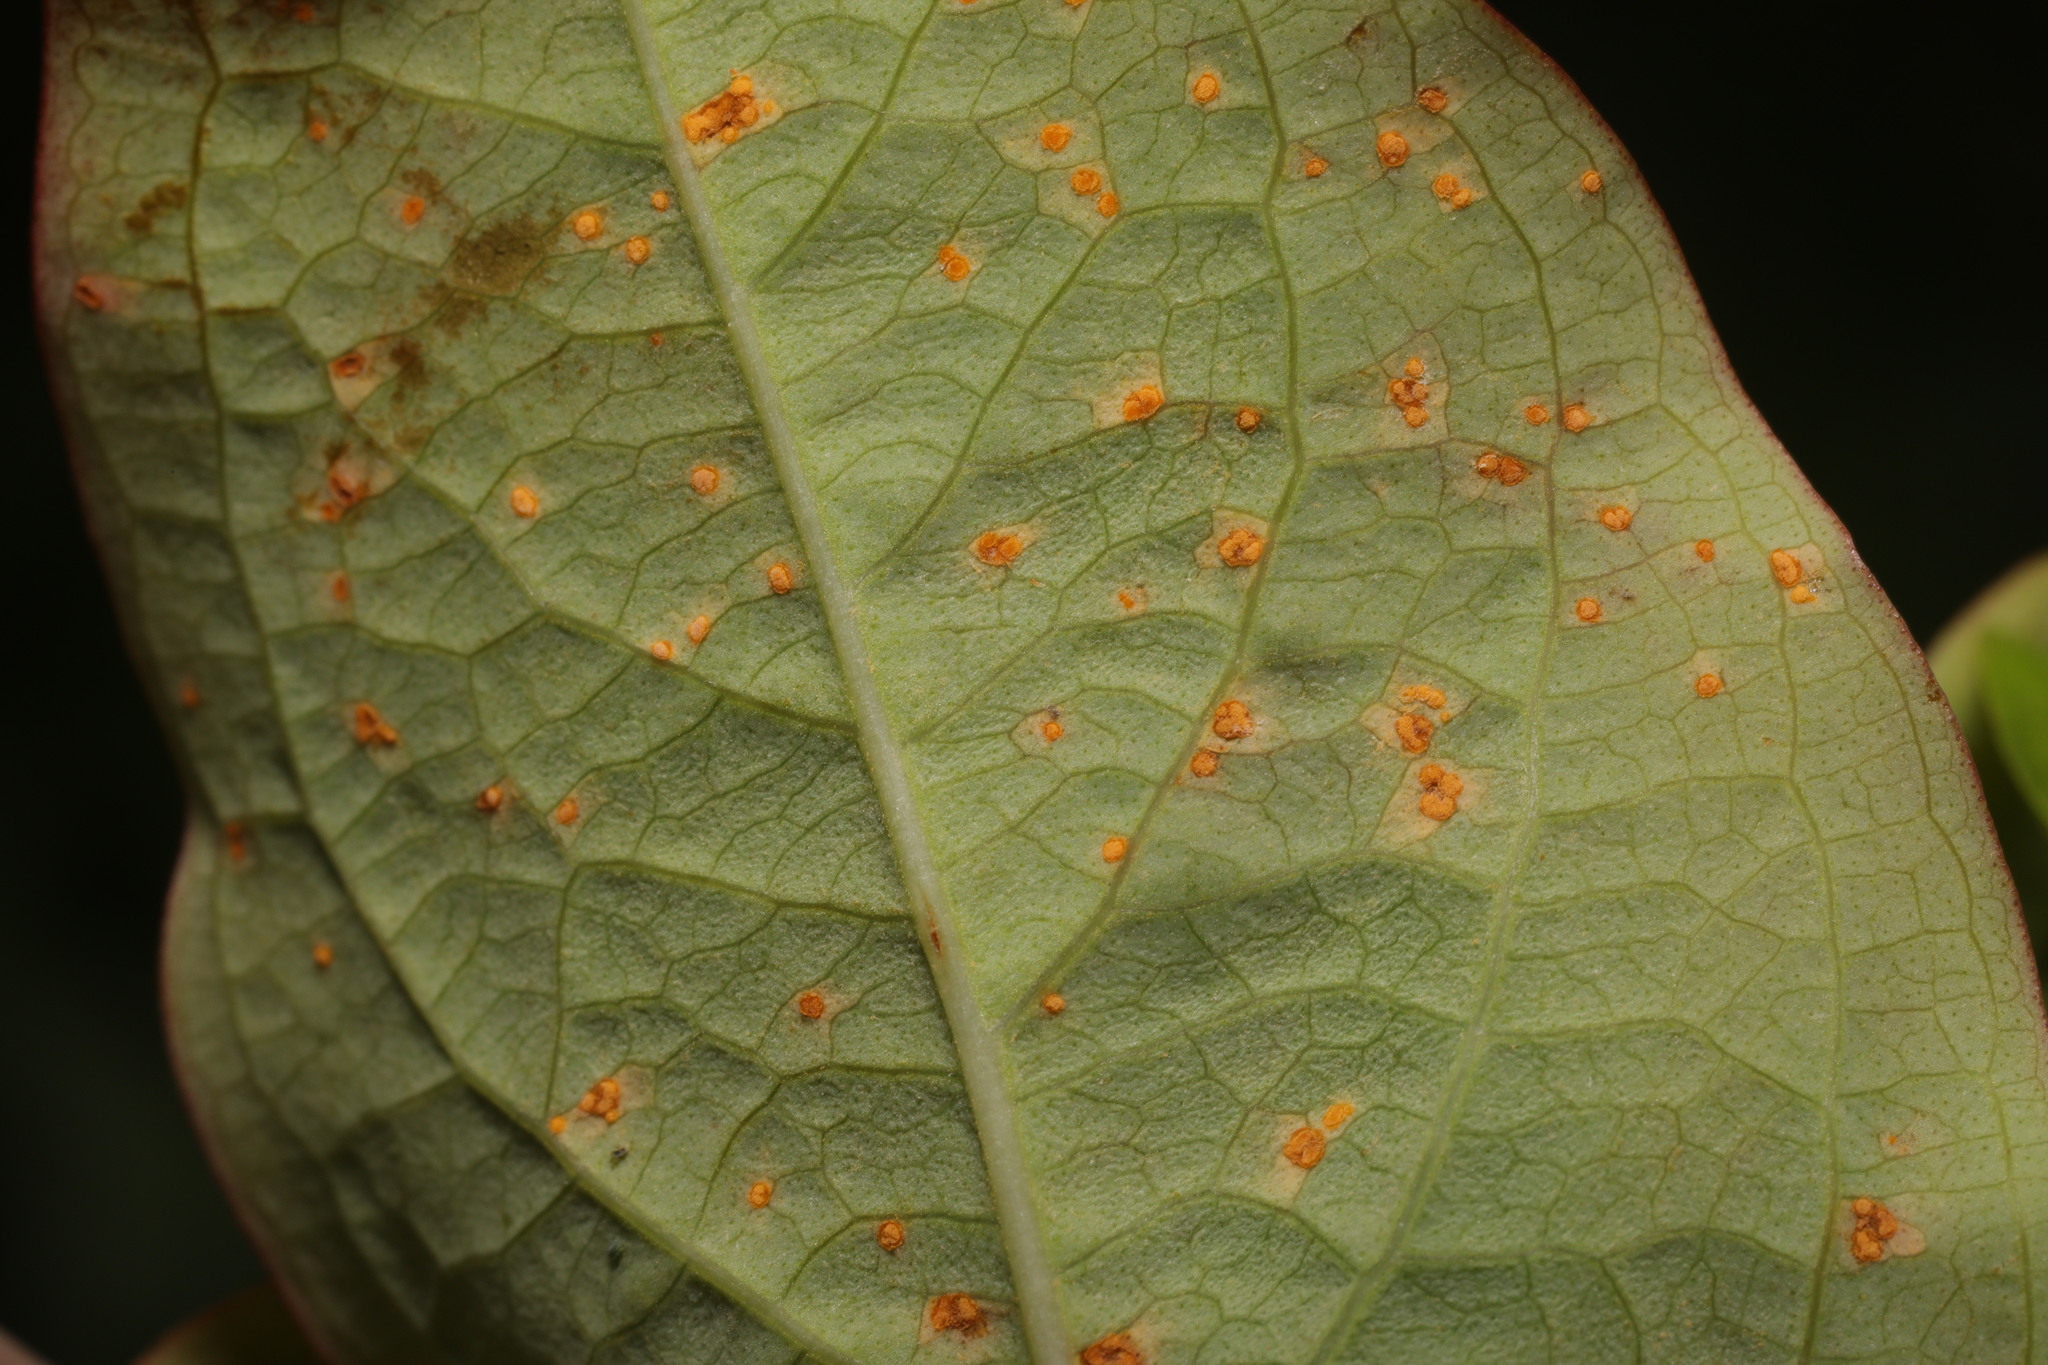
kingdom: Fungi
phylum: Basidiomycota
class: Pucciniomycetes
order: Pucciniales
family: Melampsoraceae
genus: Melampsora
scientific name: Melampsora
